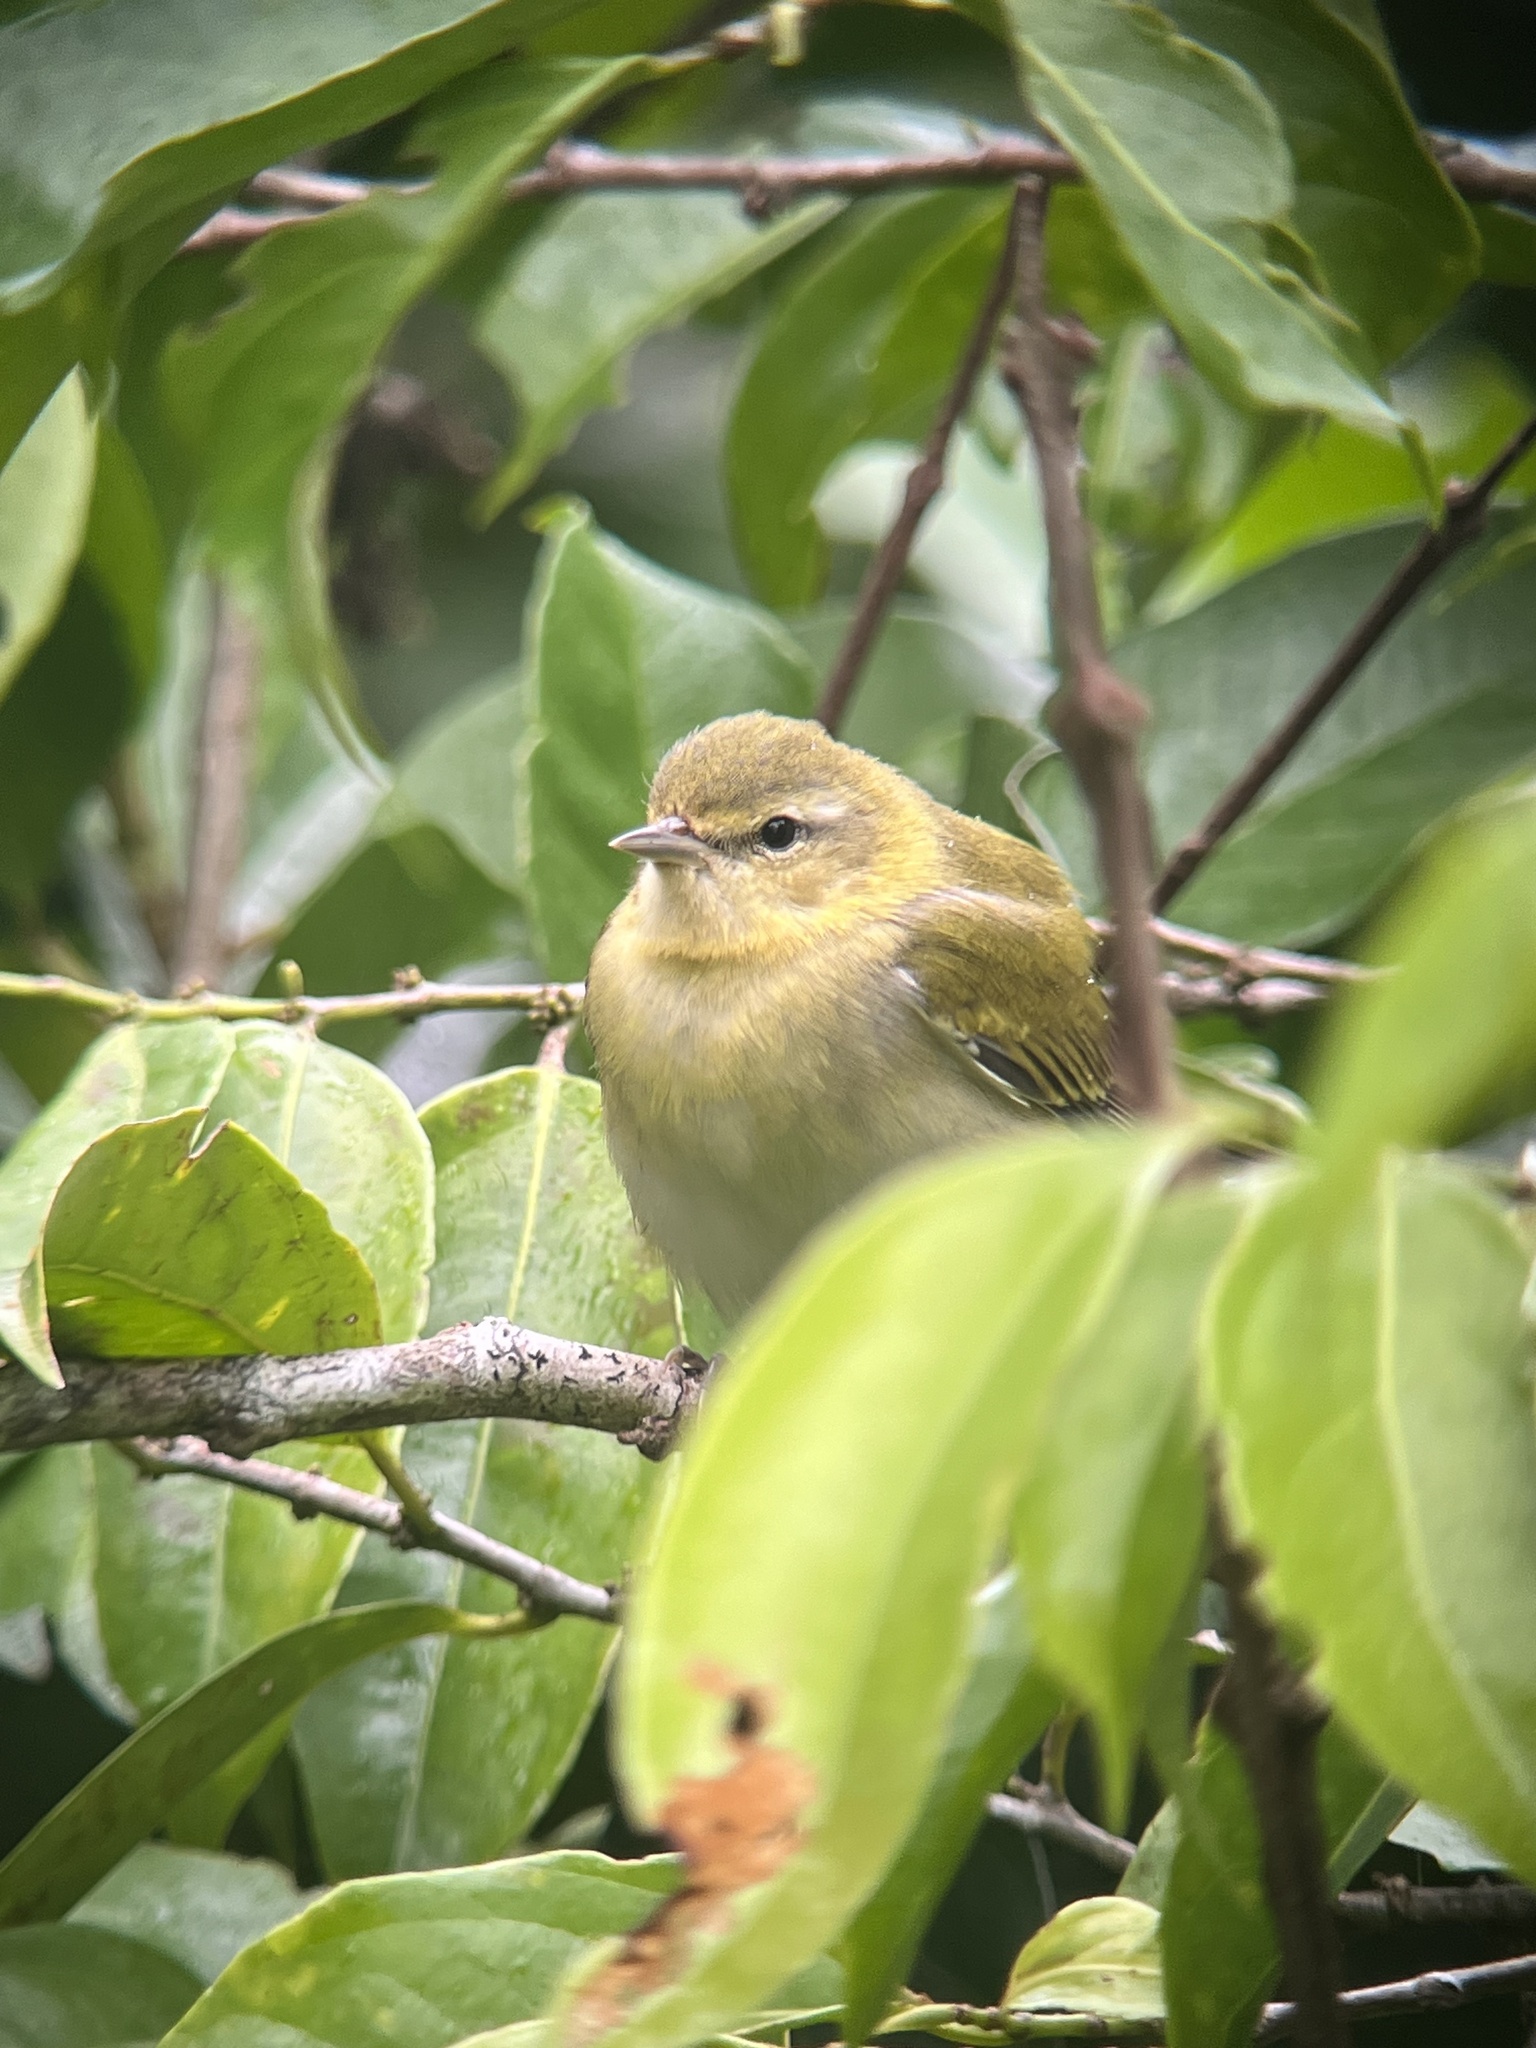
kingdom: Animalia
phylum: Chordata
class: Aves
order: Passeriformes
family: Parulidae
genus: Leiothlypis
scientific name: Leiothlypis peregrina
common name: Tennessee warbler
